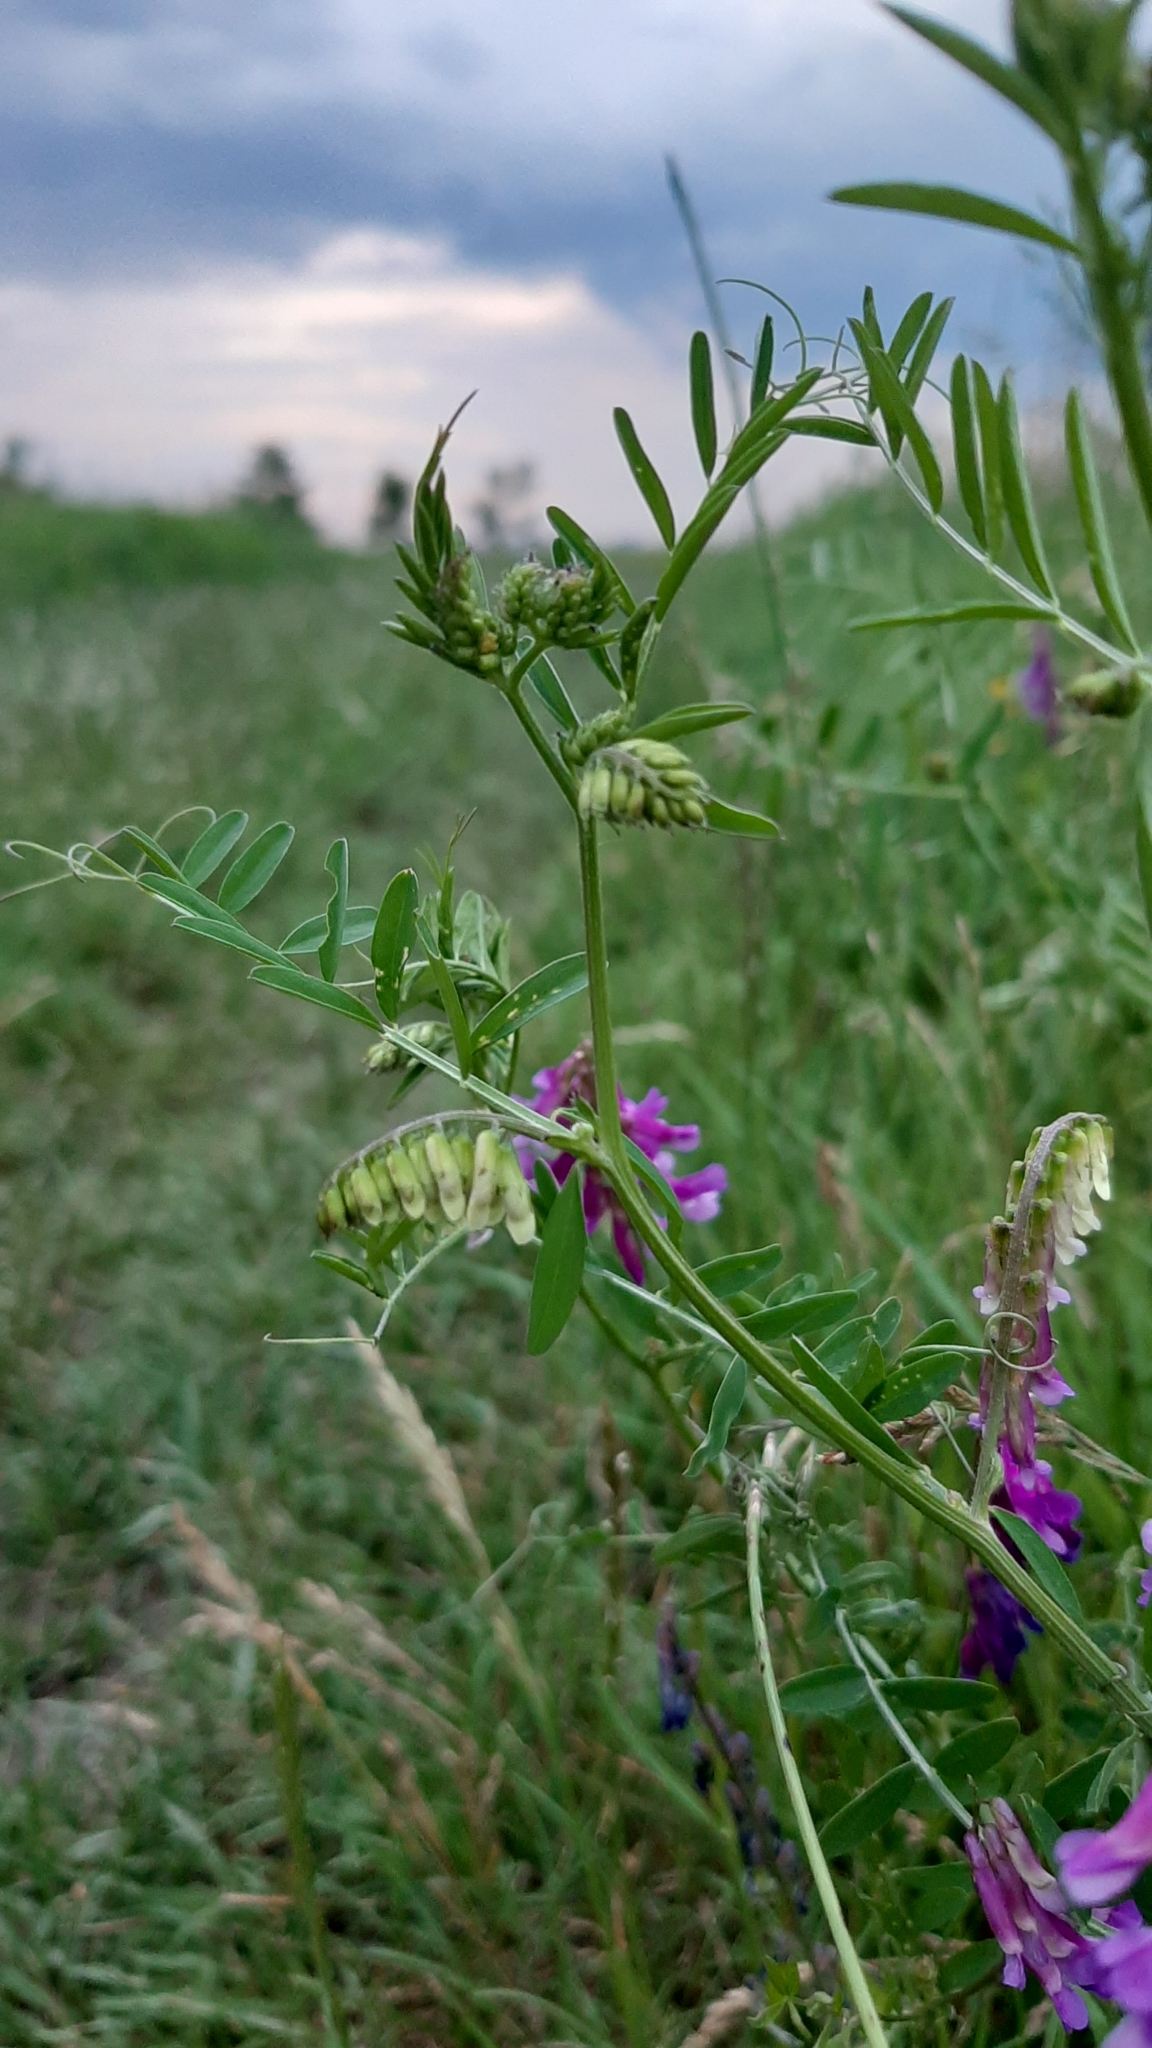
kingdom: Plantae
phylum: Tracheophyta
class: Magnoliopsida
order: Fabales
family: Fabaceae
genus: Vicia
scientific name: Vicia villosa
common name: Fodder vetch
